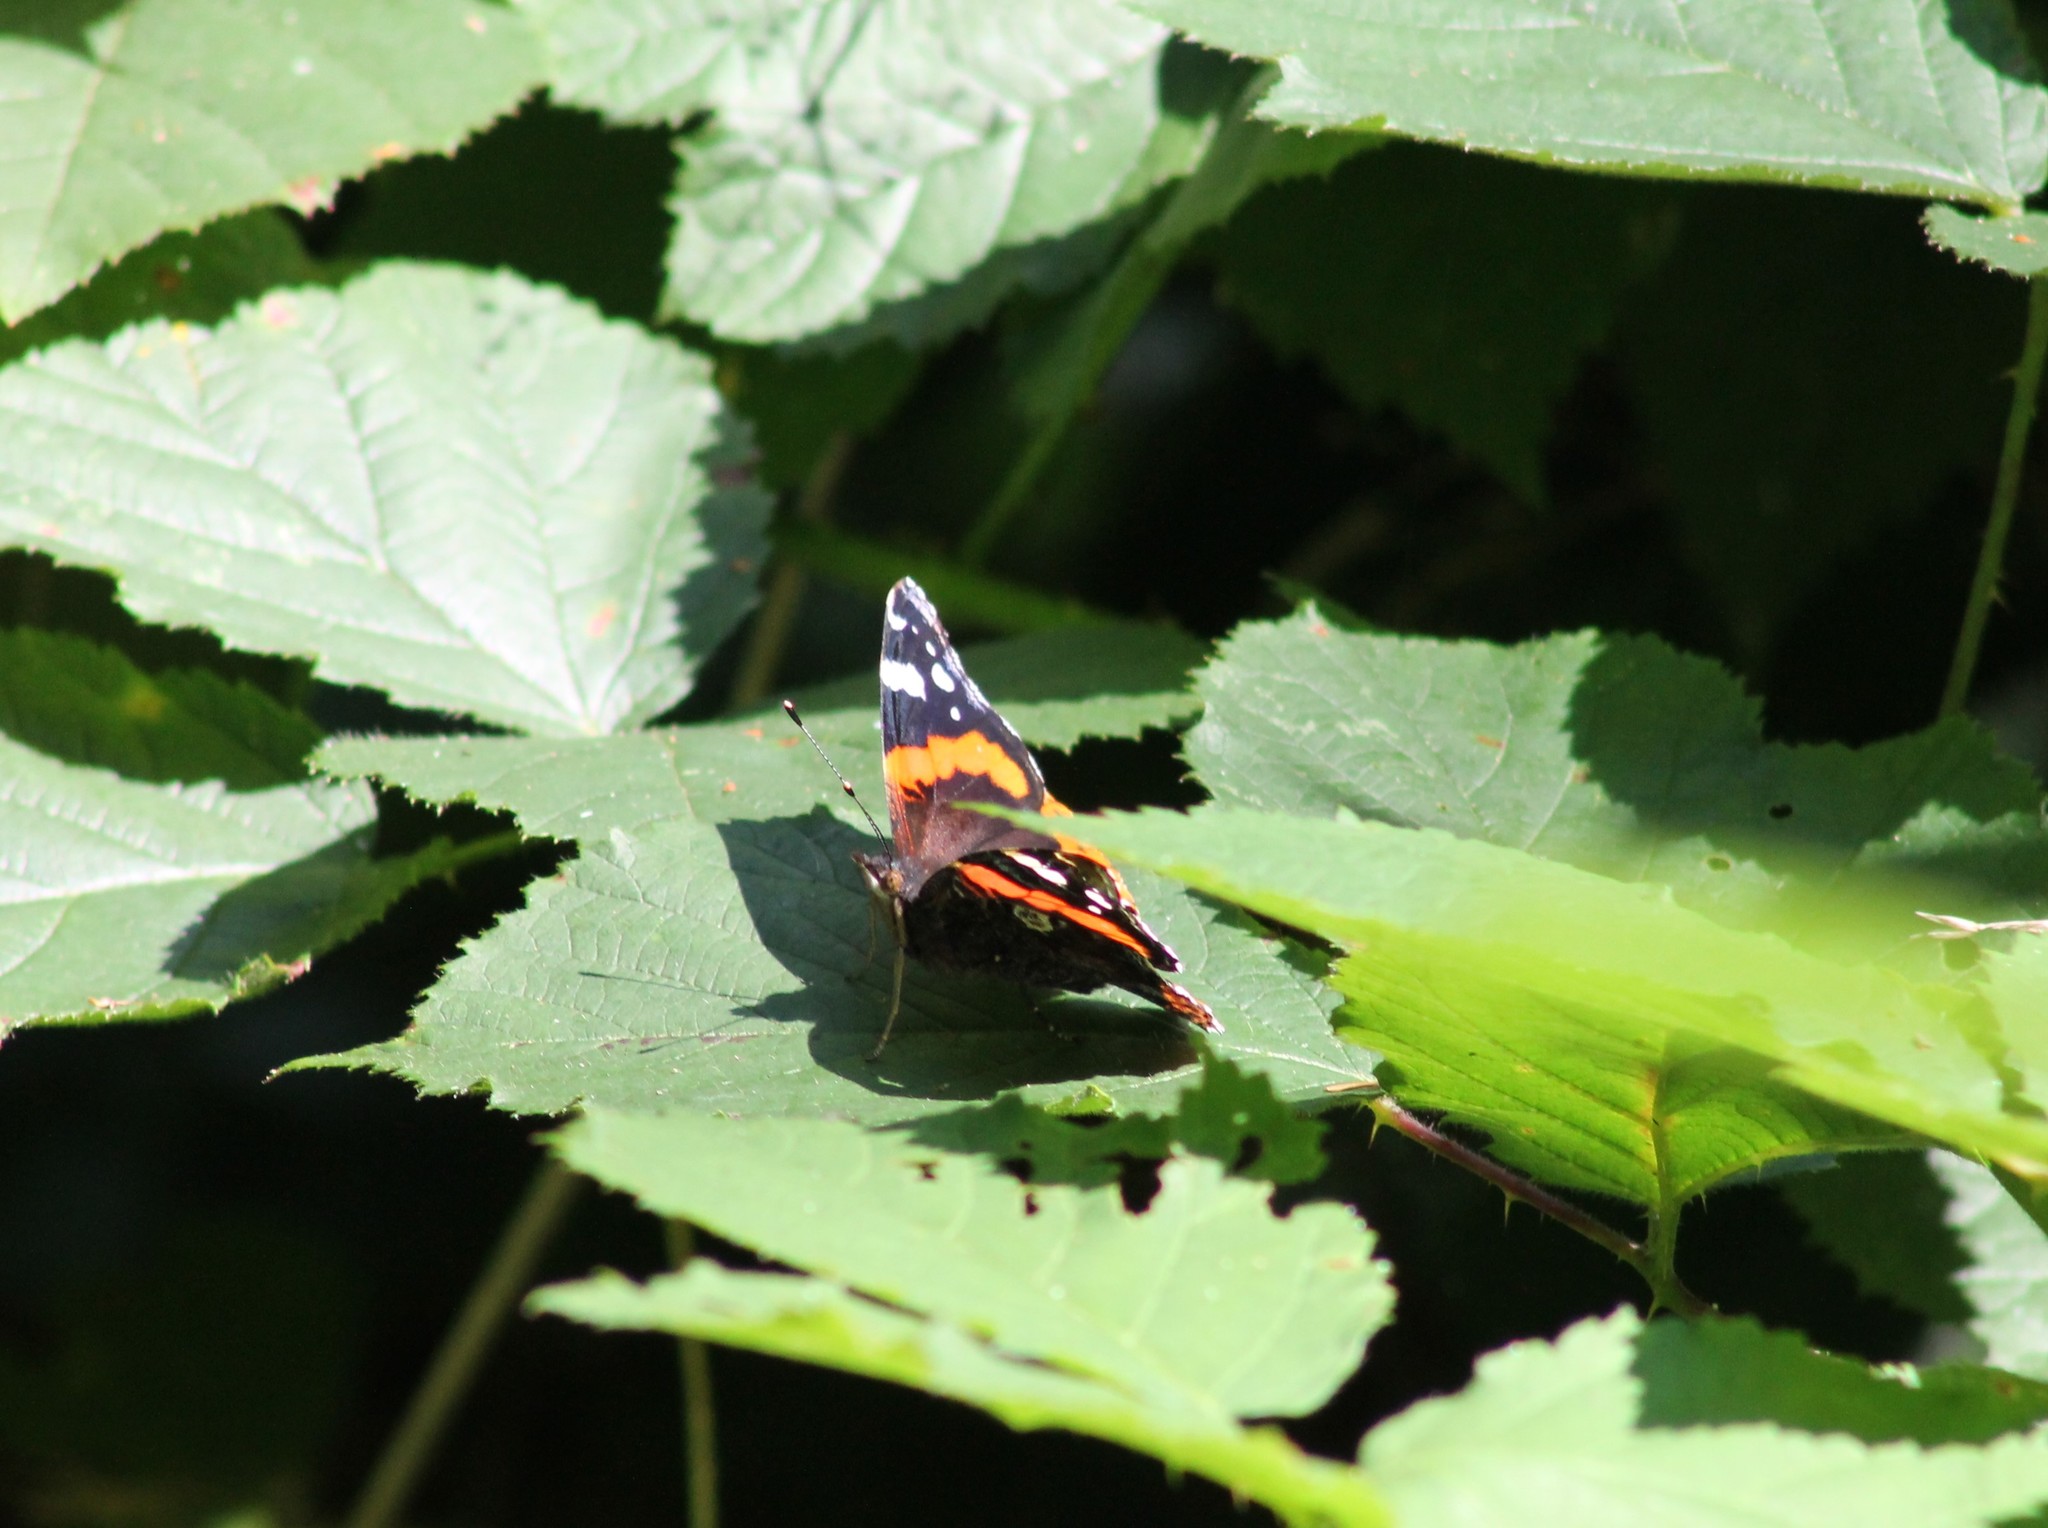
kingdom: Animalia
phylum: Arthropoda
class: Insecta
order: Lepidoptera
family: Nymphalidae
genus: Vanessa
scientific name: Vanessa atalanta
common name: Red admiral
